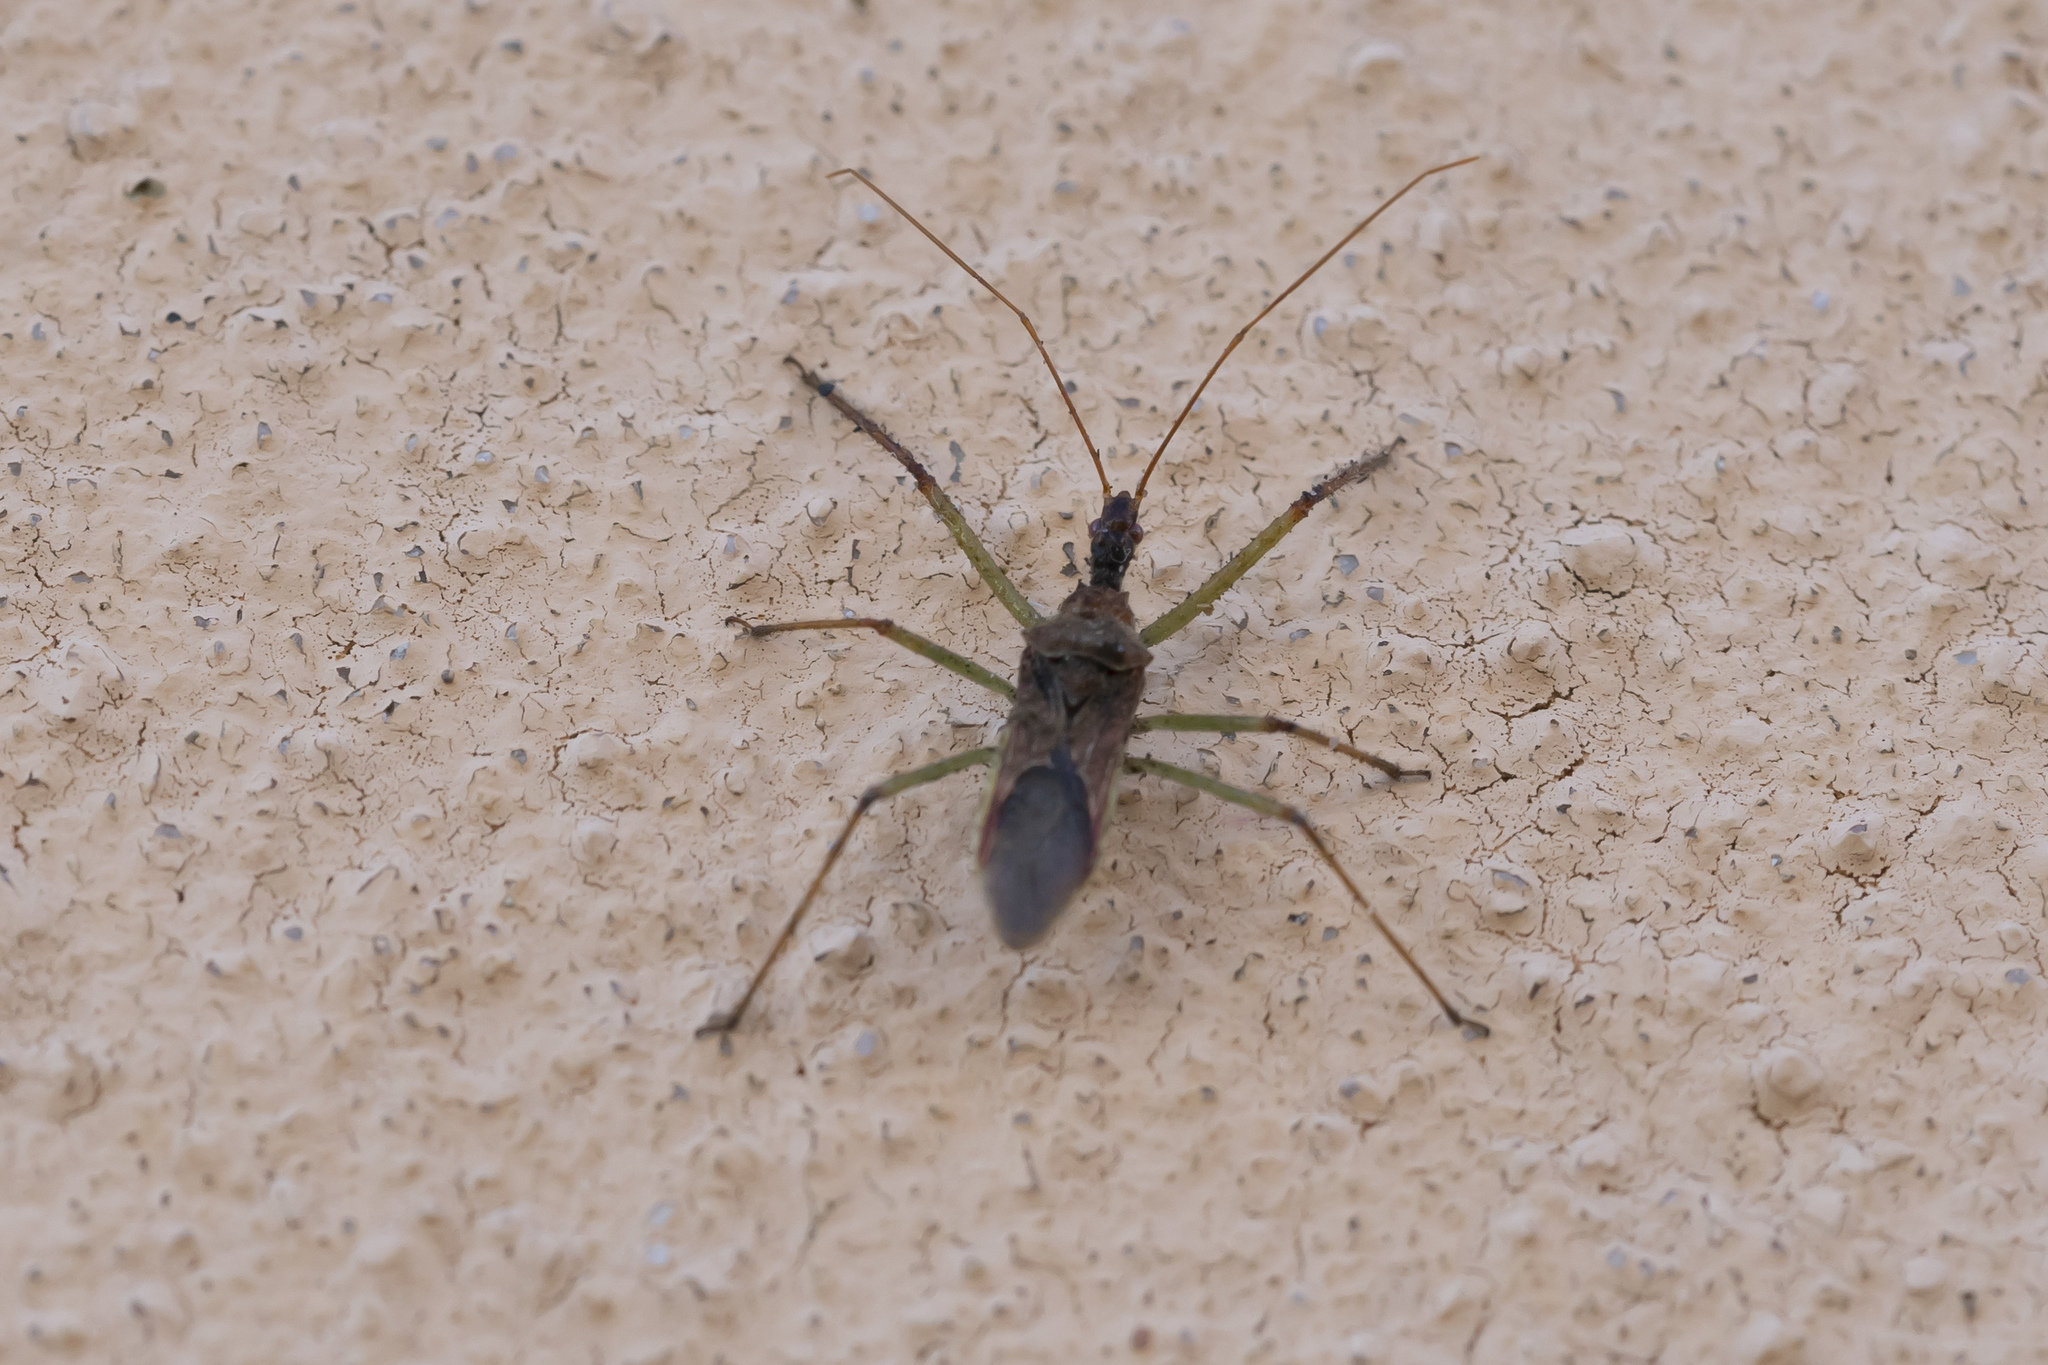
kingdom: Animalia
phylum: Arthropoda
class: Insecta
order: Hemiptera
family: Reduviidae
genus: Zelus
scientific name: Zelus renardii
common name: Assassin bug
